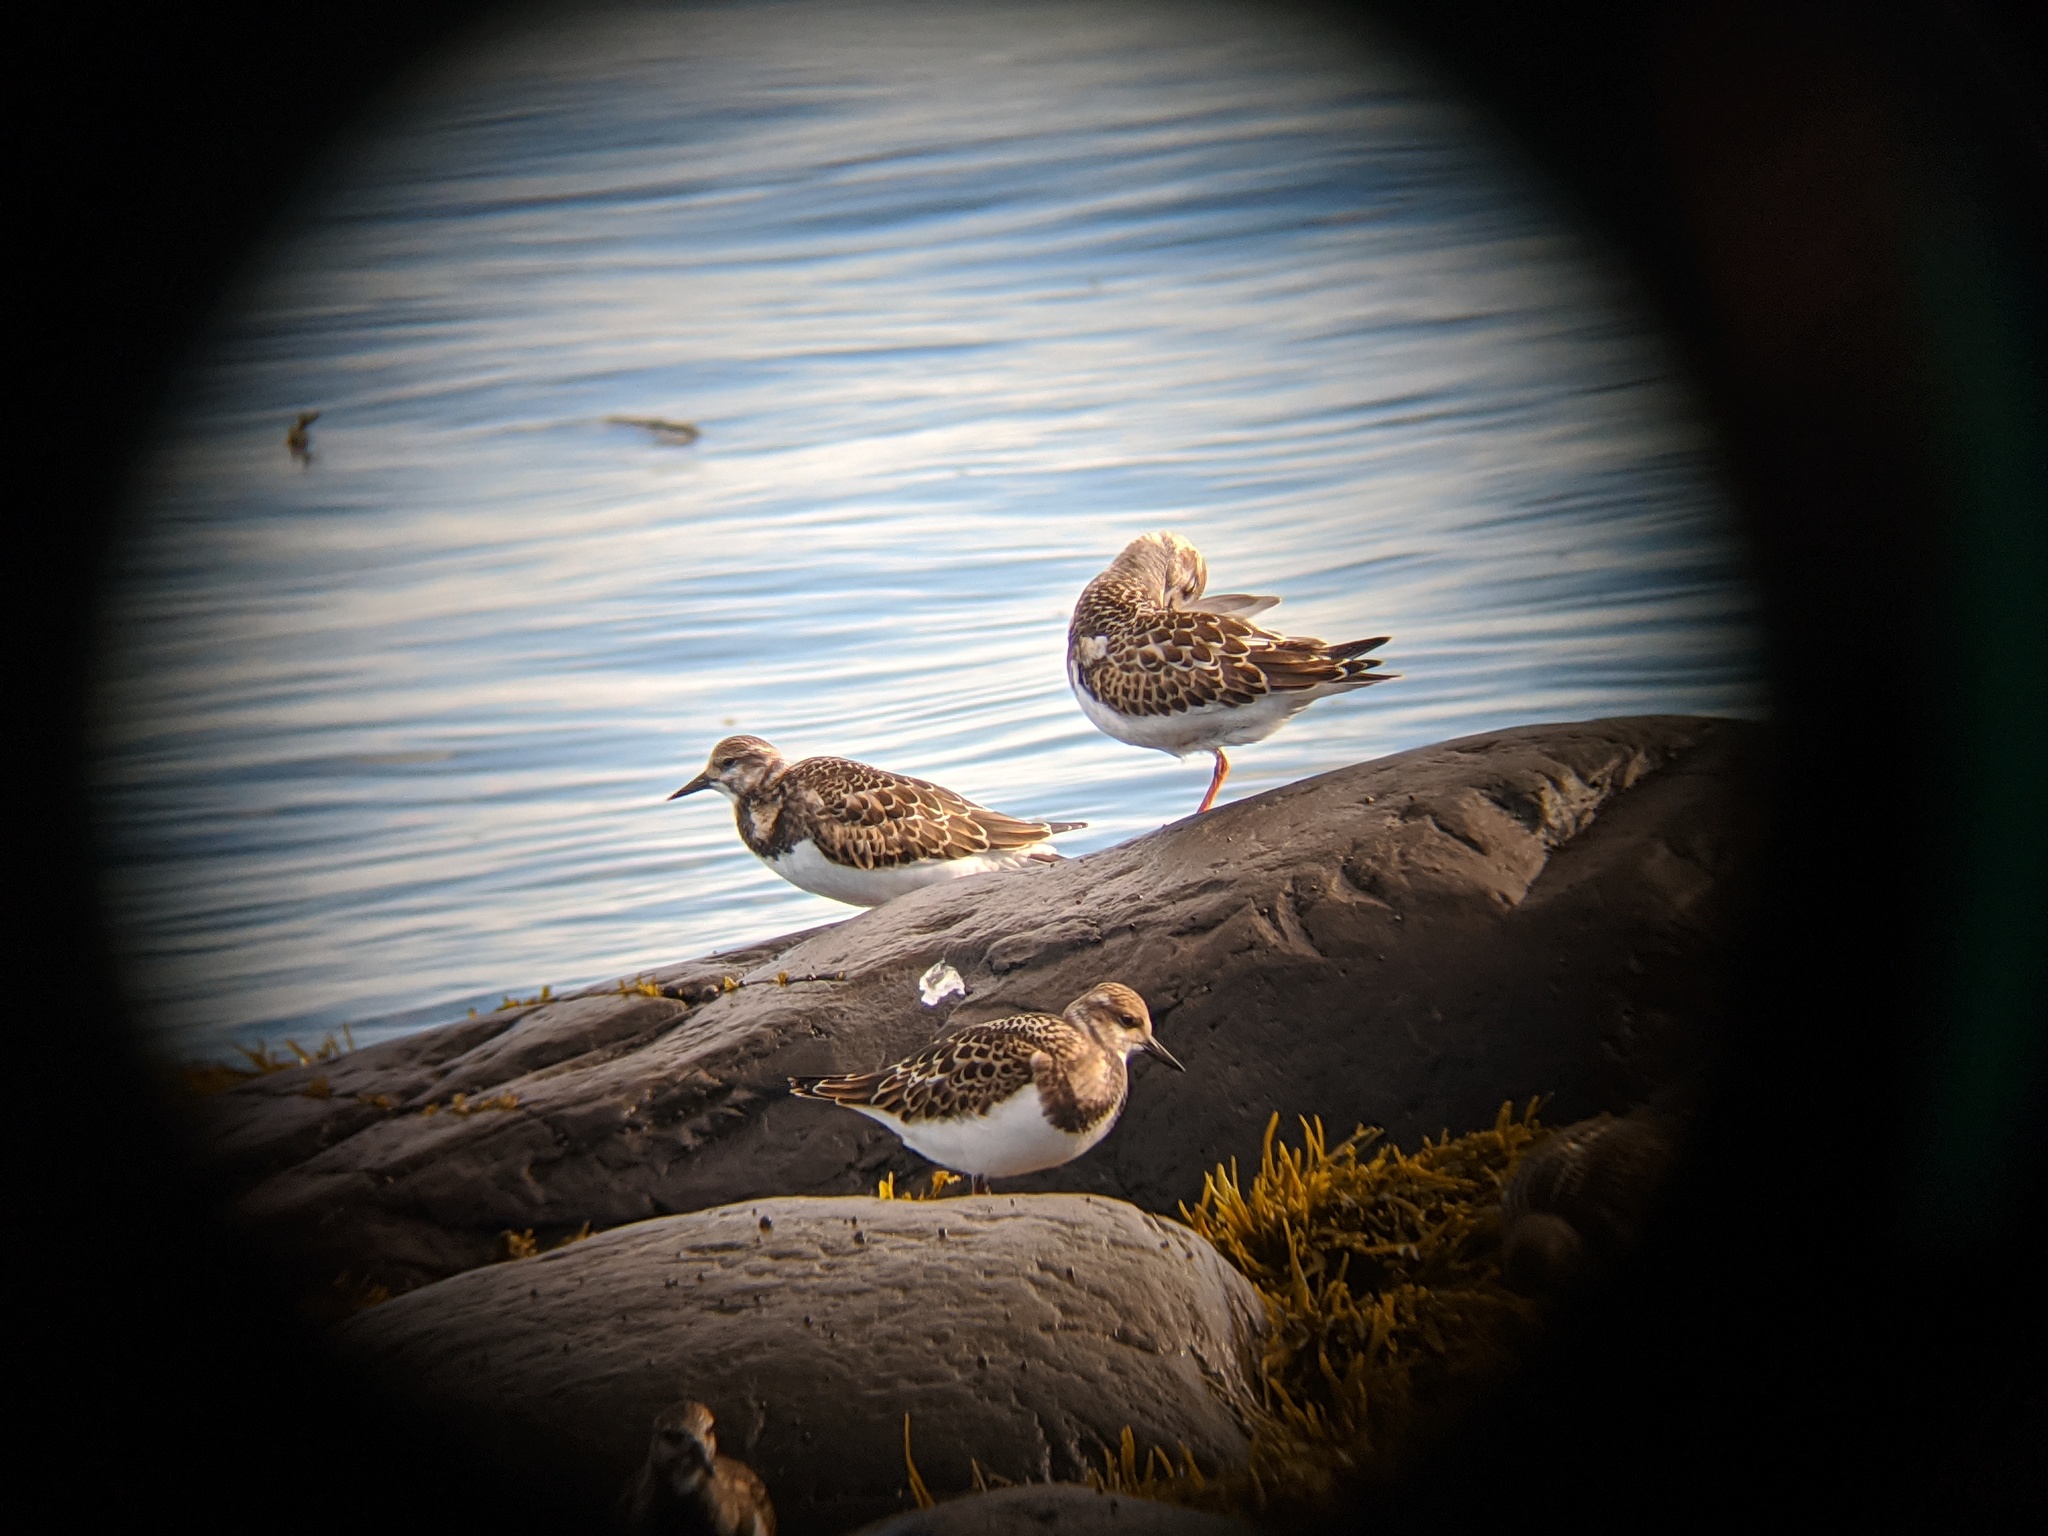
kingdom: Animalia
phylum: Chordata
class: Aves
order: Charadriiformes
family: Scolopacidae
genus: Arenaria
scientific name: Arenaria interpres
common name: Ruddy turnstone
